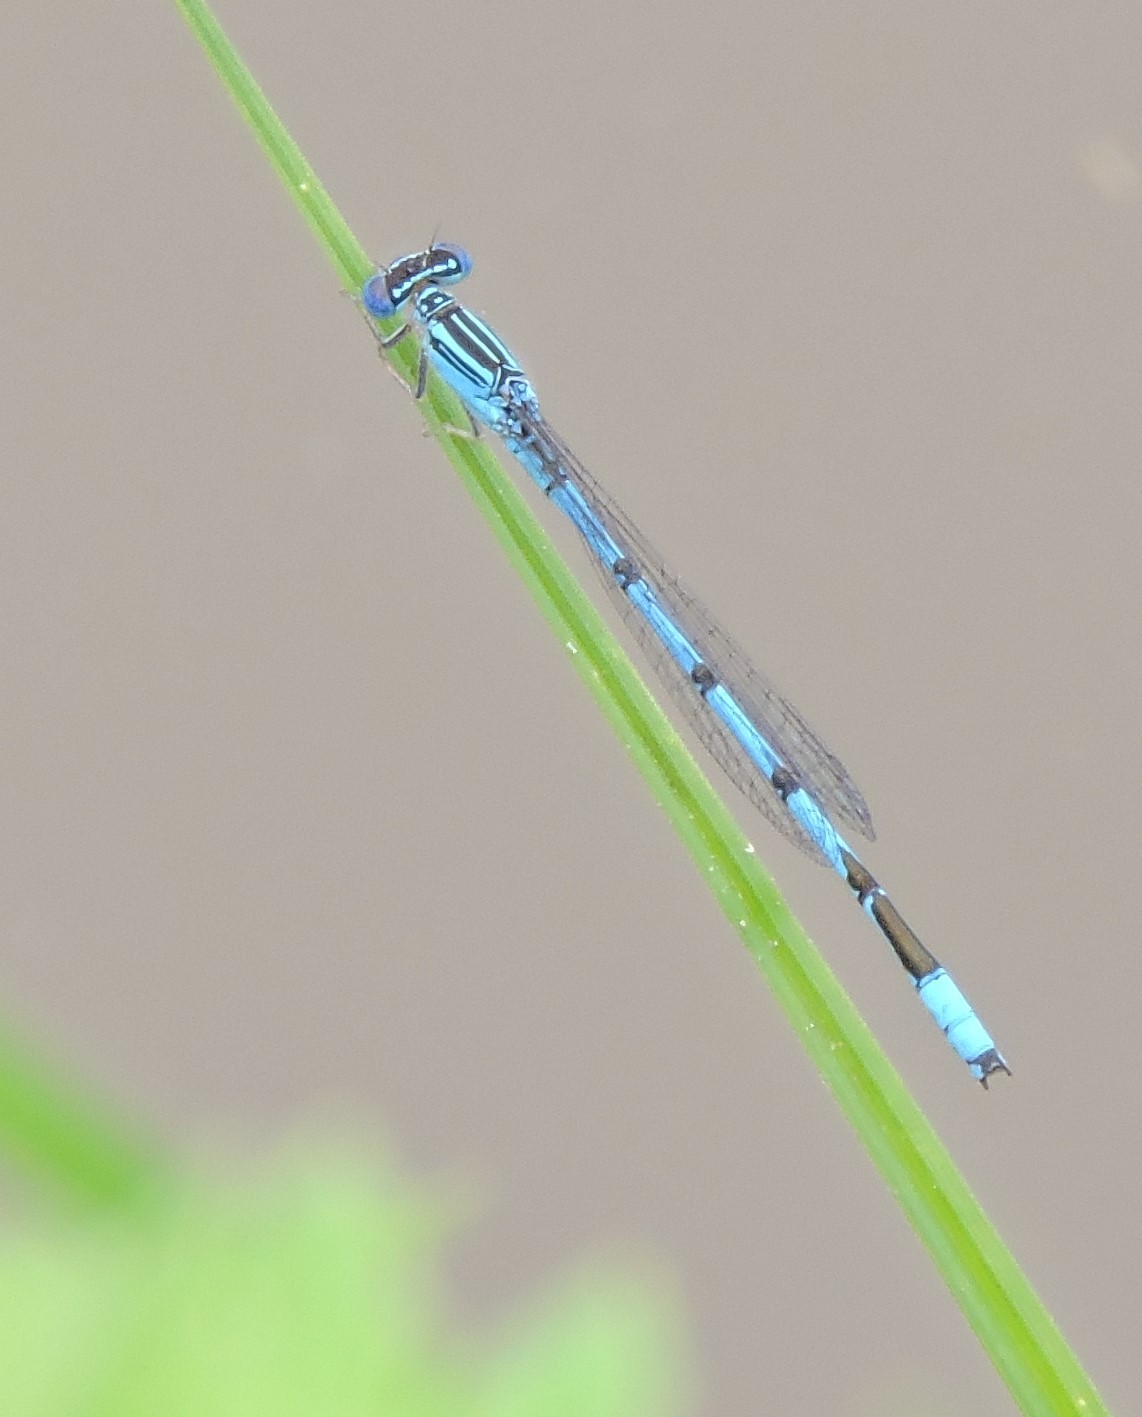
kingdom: Animalia
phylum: Arthropoda
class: Insecta
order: Odonata
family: Coenagrionidae
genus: Enallagma
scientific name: Enallagma basidens
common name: Double-striped bluet
